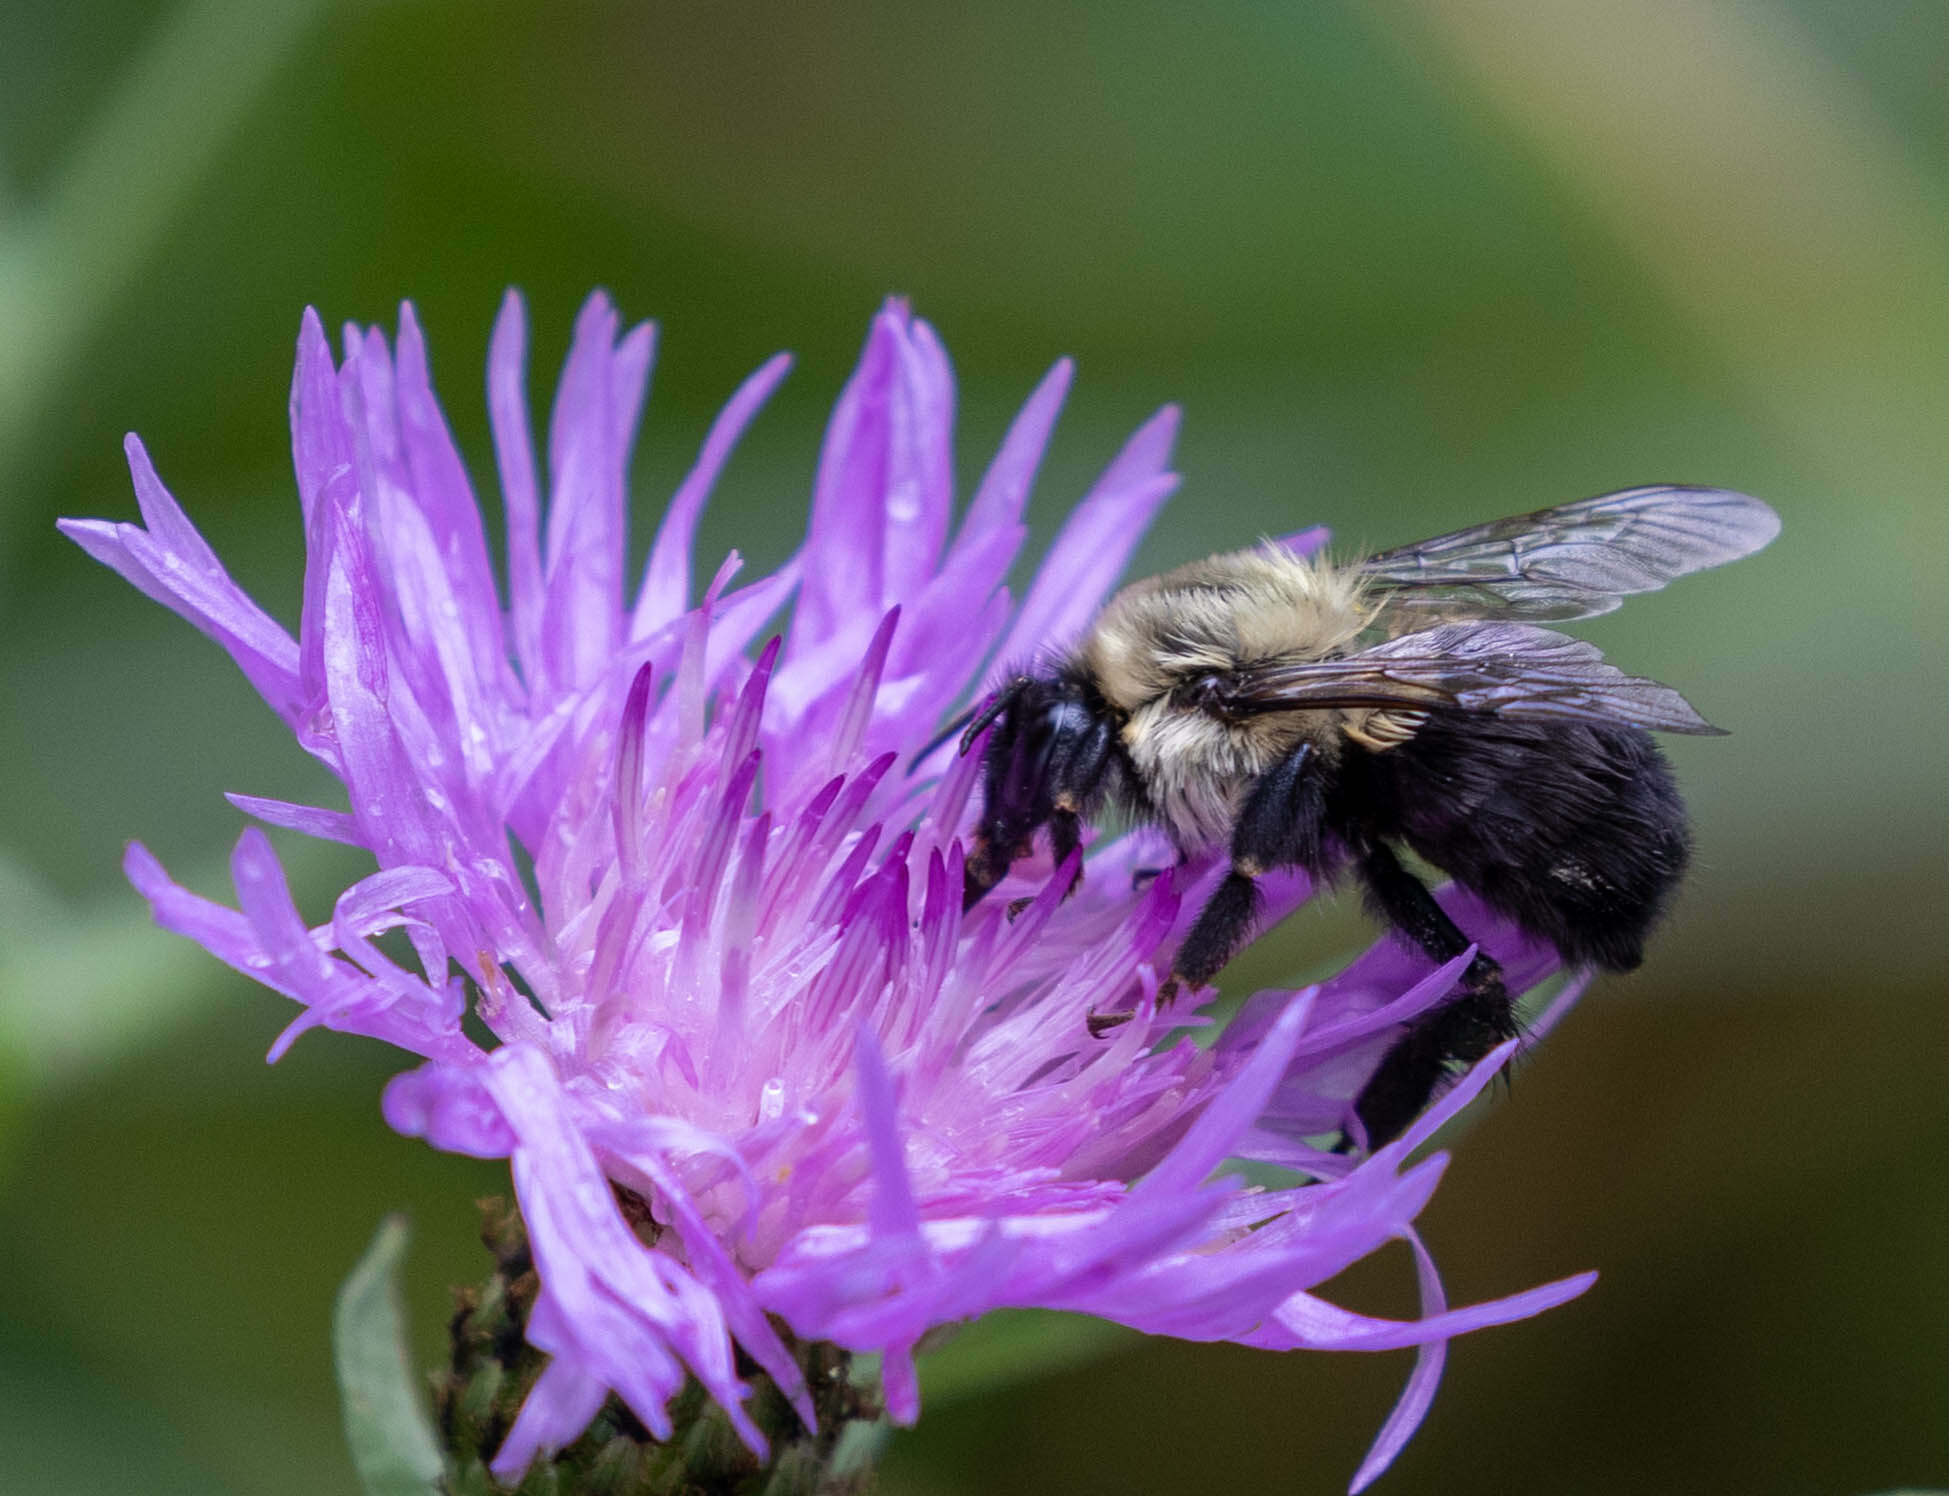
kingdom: Animalia
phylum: Arthropoda
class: Insecta
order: Hymenoptera
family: Apidae
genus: Bombus
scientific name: Bombus impatiens
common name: Common eastern bumble bee
